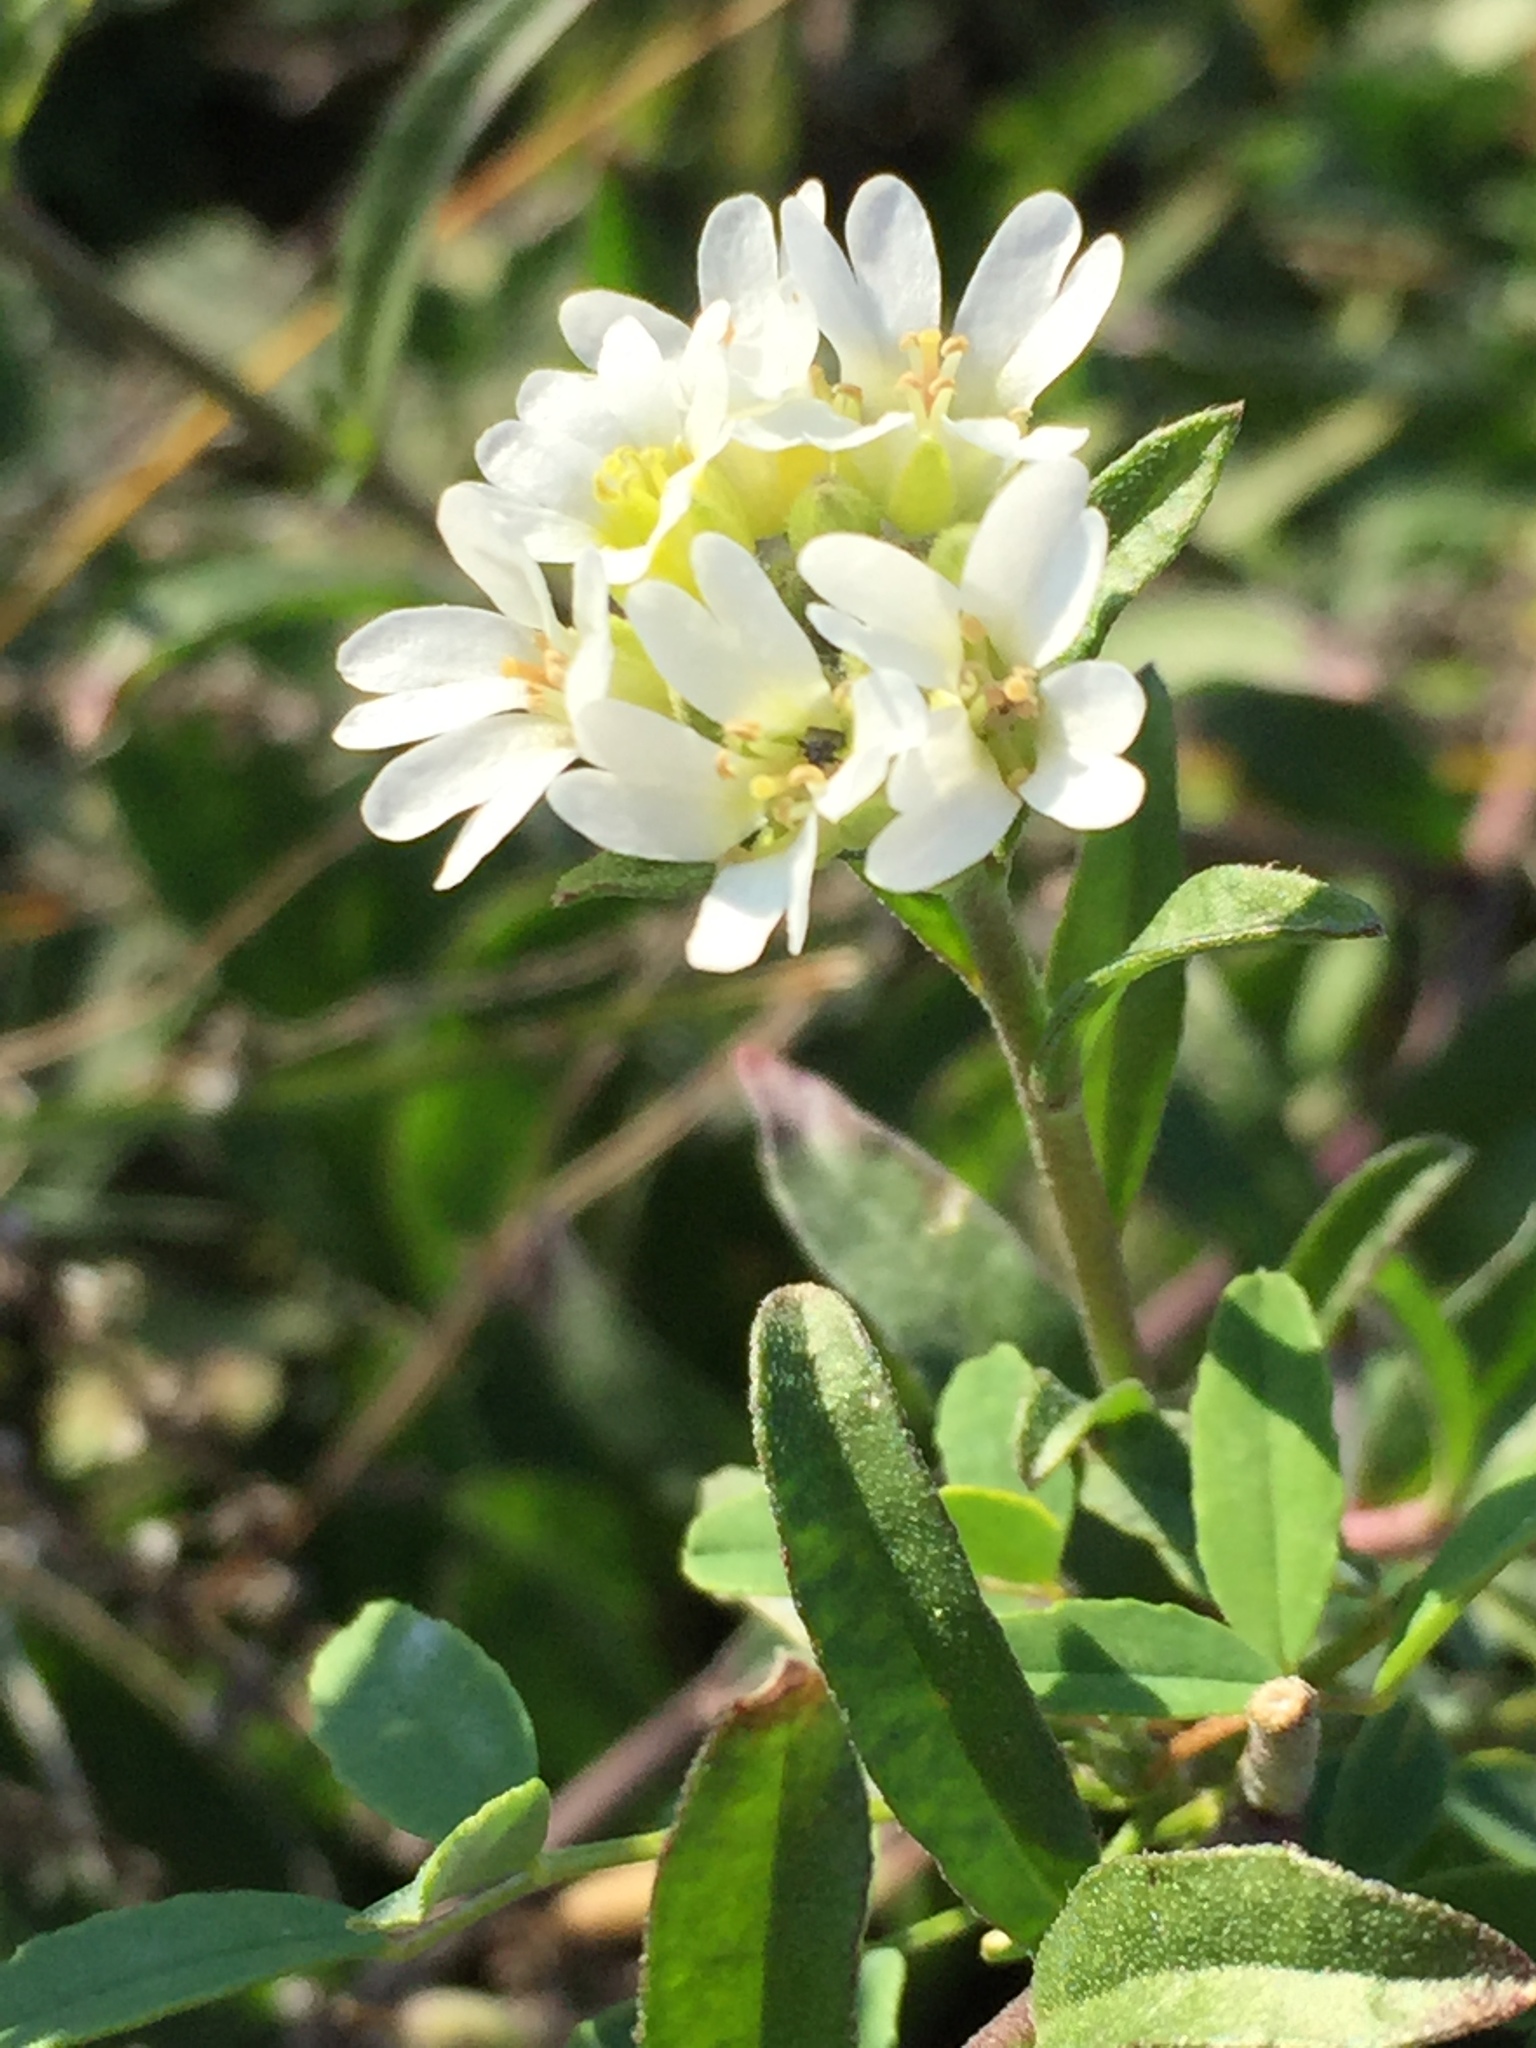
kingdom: Plantae
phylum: Tracheophyta
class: Magnoliopsida
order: Brassicales
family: Brassicaceae
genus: Berteroa
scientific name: Berteroa incana
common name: Hoary alison
